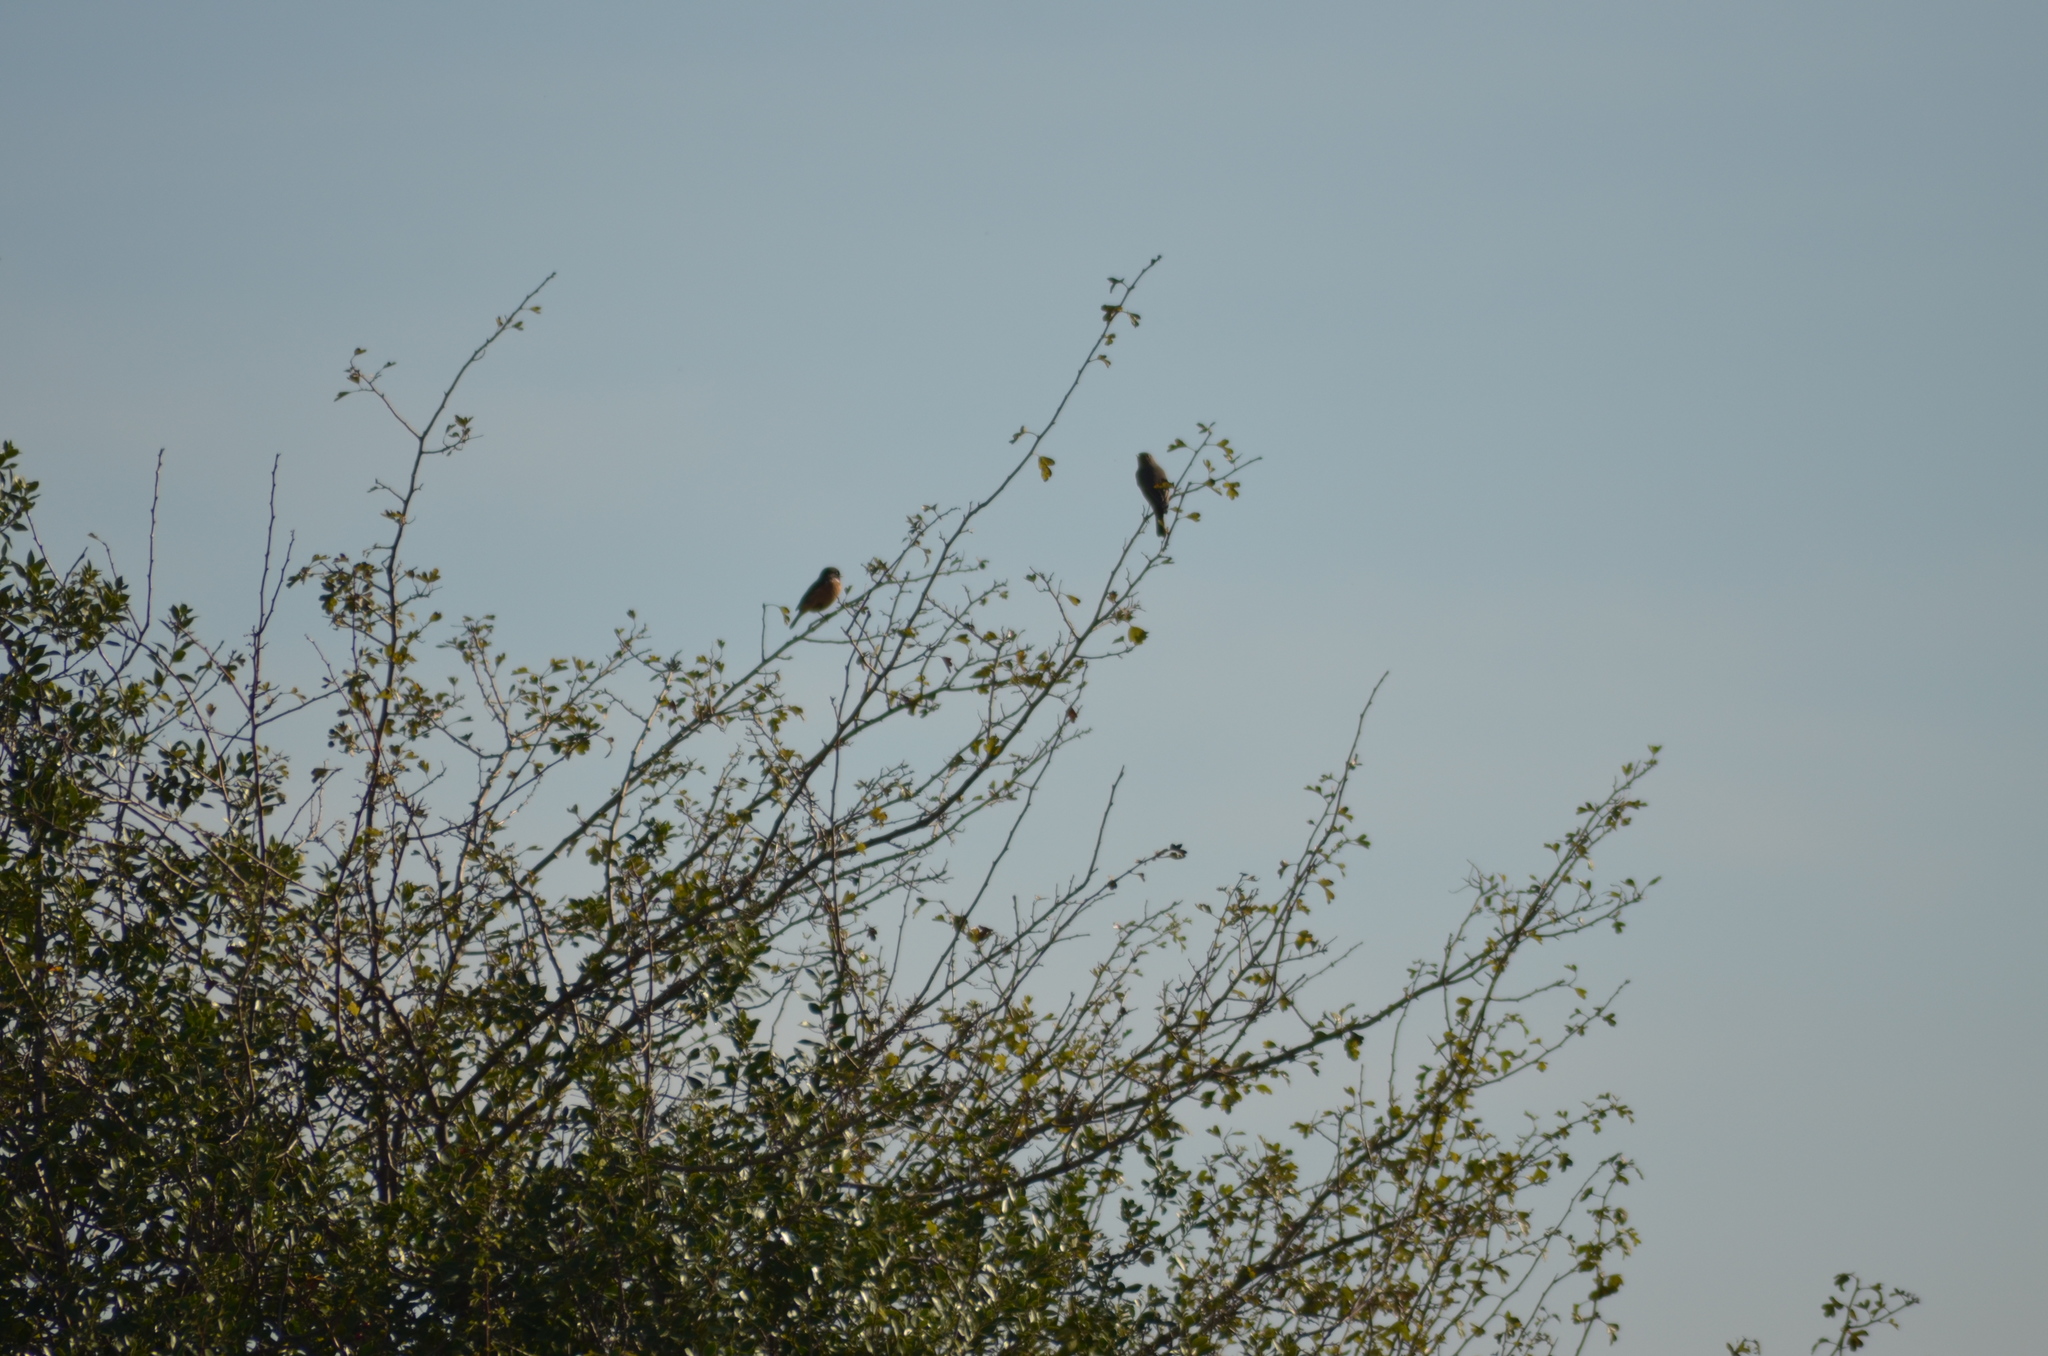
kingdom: Animalia
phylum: Chordata
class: Aves
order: Passeriformes
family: Muscicapidae
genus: Phoenicurus
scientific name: Phoenicurus ochruros
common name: Black redstart
